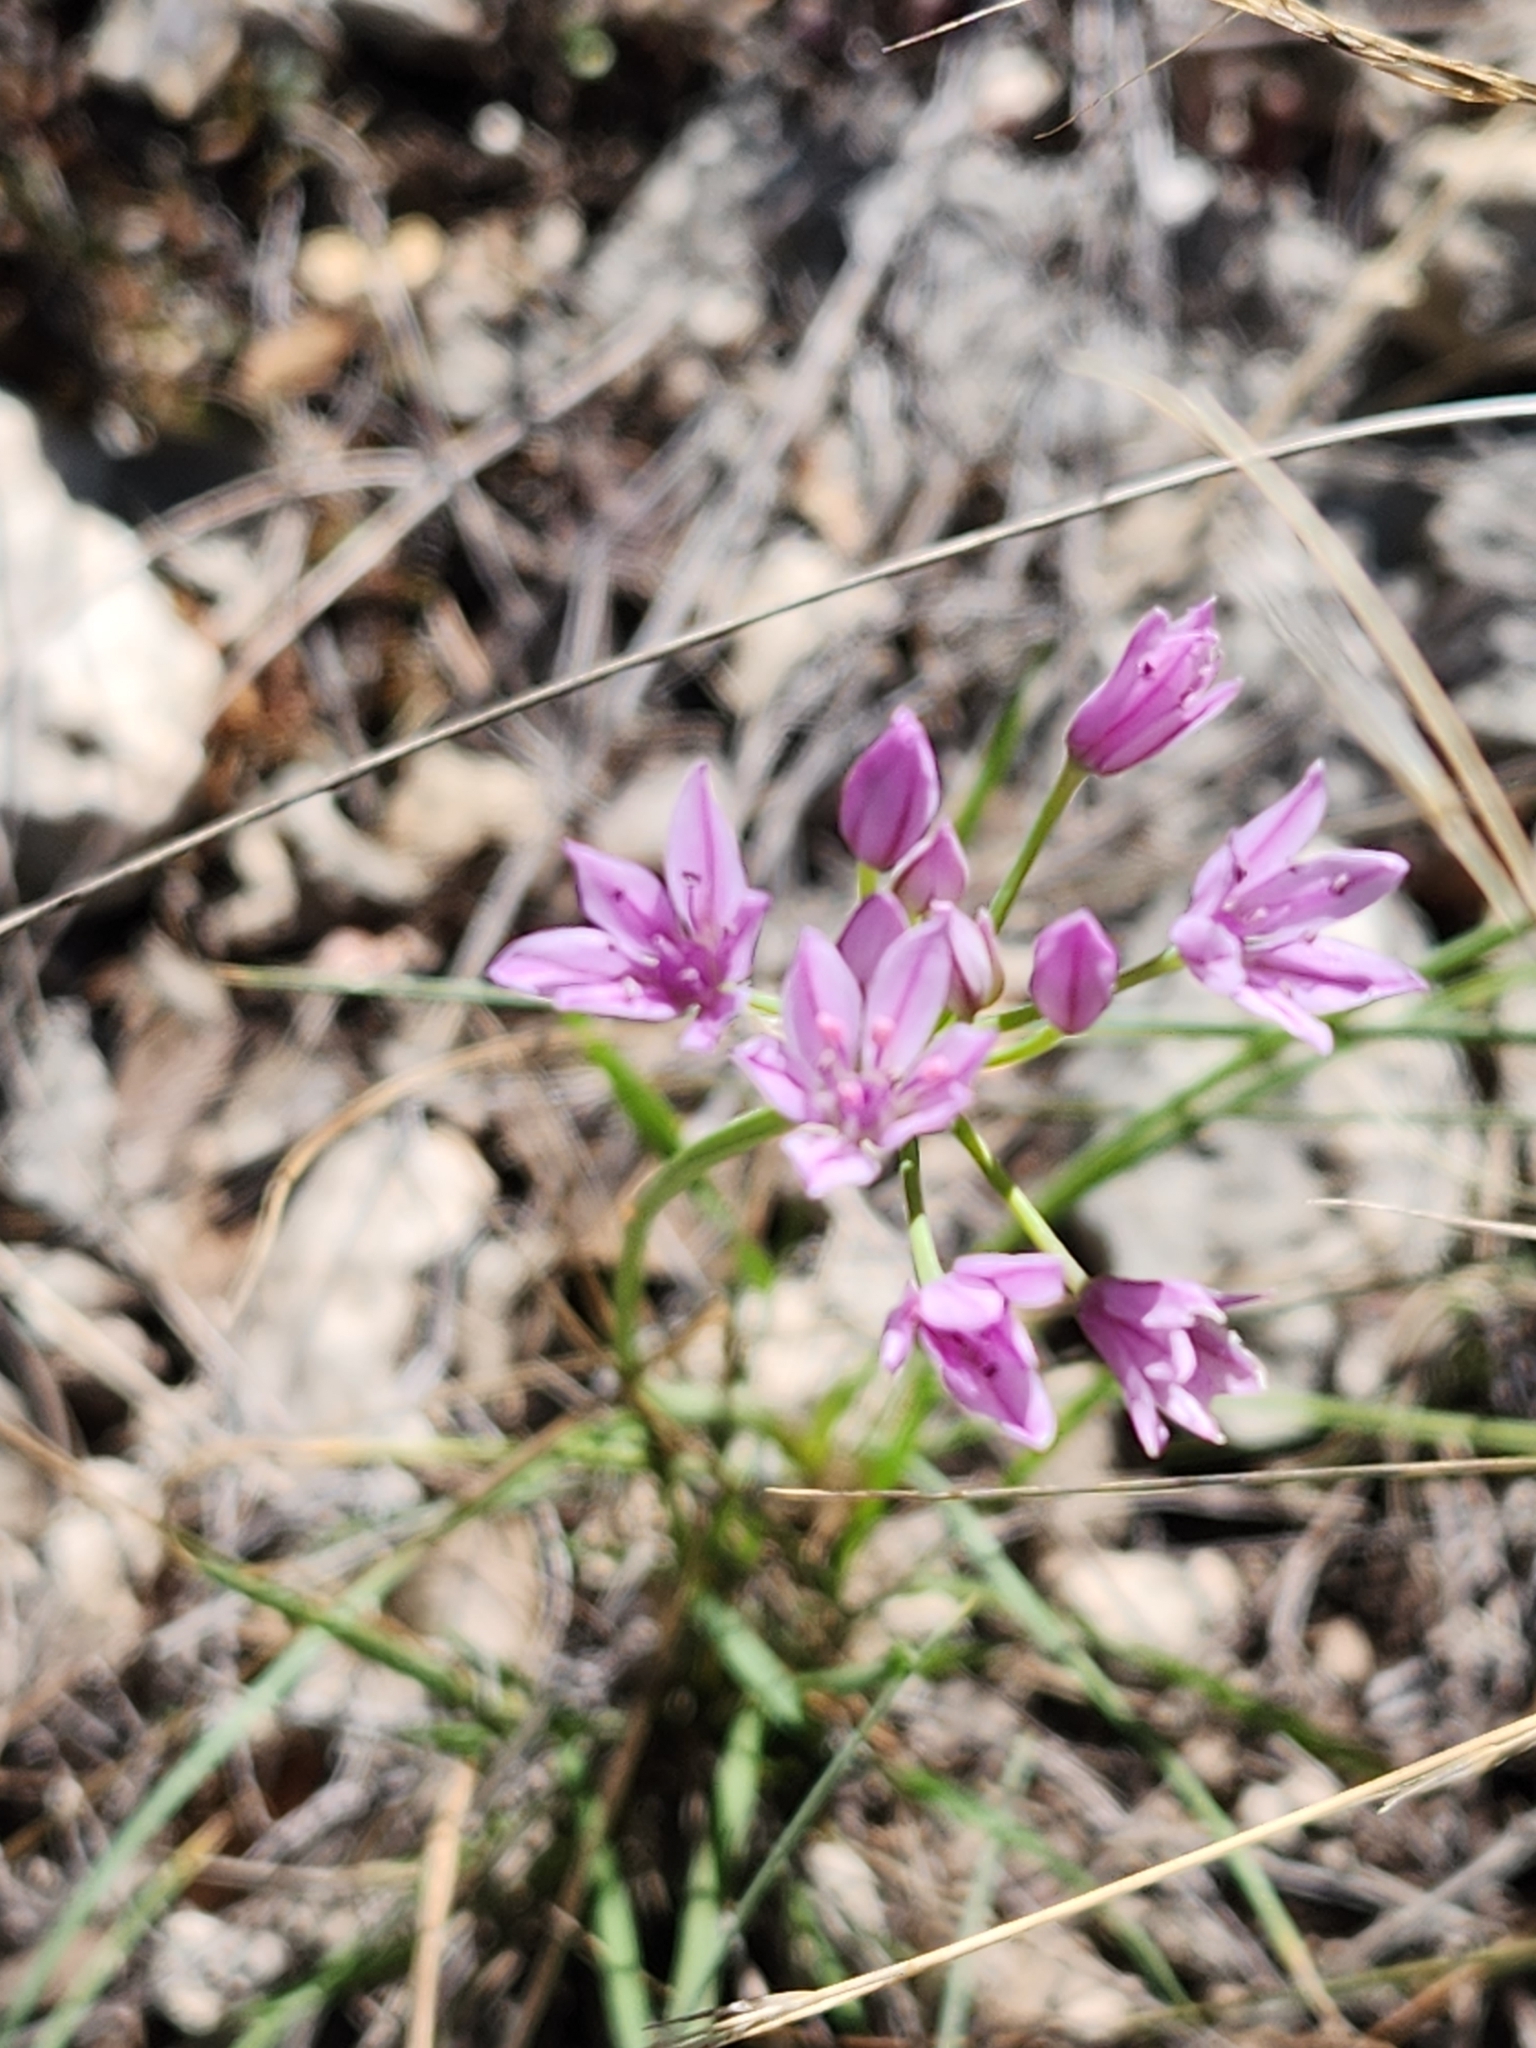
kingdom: Plantae
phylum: Tracheophyta
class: Liliopsida
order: Asparagales
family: Amaryllidaceae
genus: Allium
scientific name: Allium drummondii
